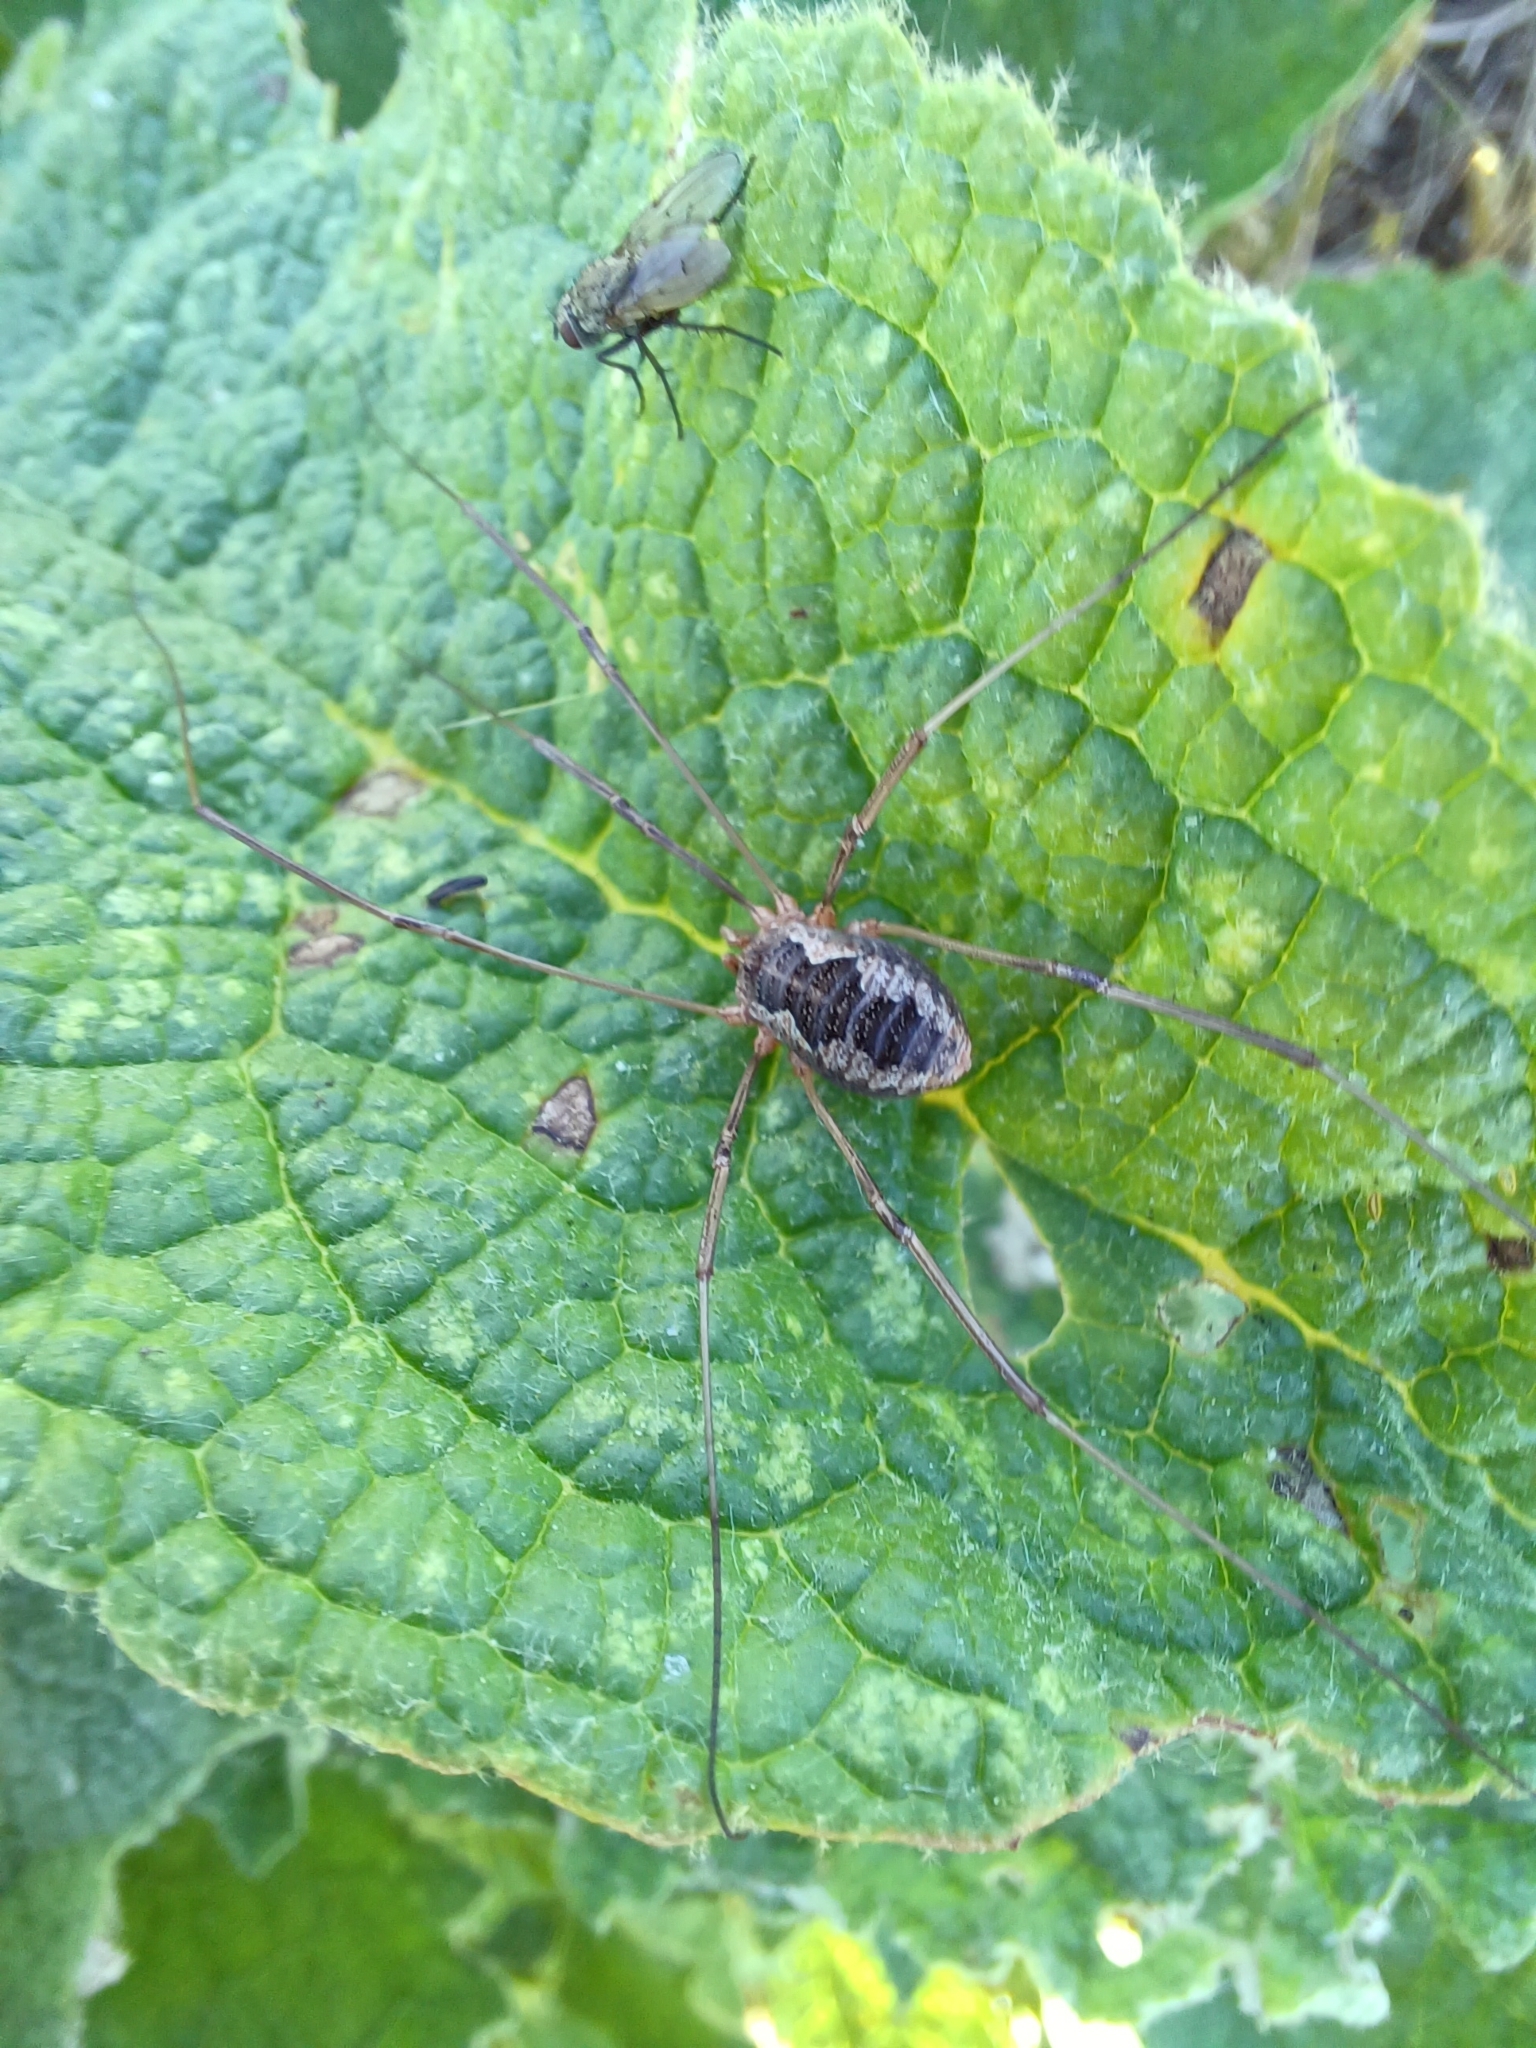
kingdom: Animalia
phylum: Arthropoda
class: Arachnida
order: Opiliones
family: Phalangiidae
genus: Phalangium
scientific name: Phalangium opilio
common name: Daddy longleg
